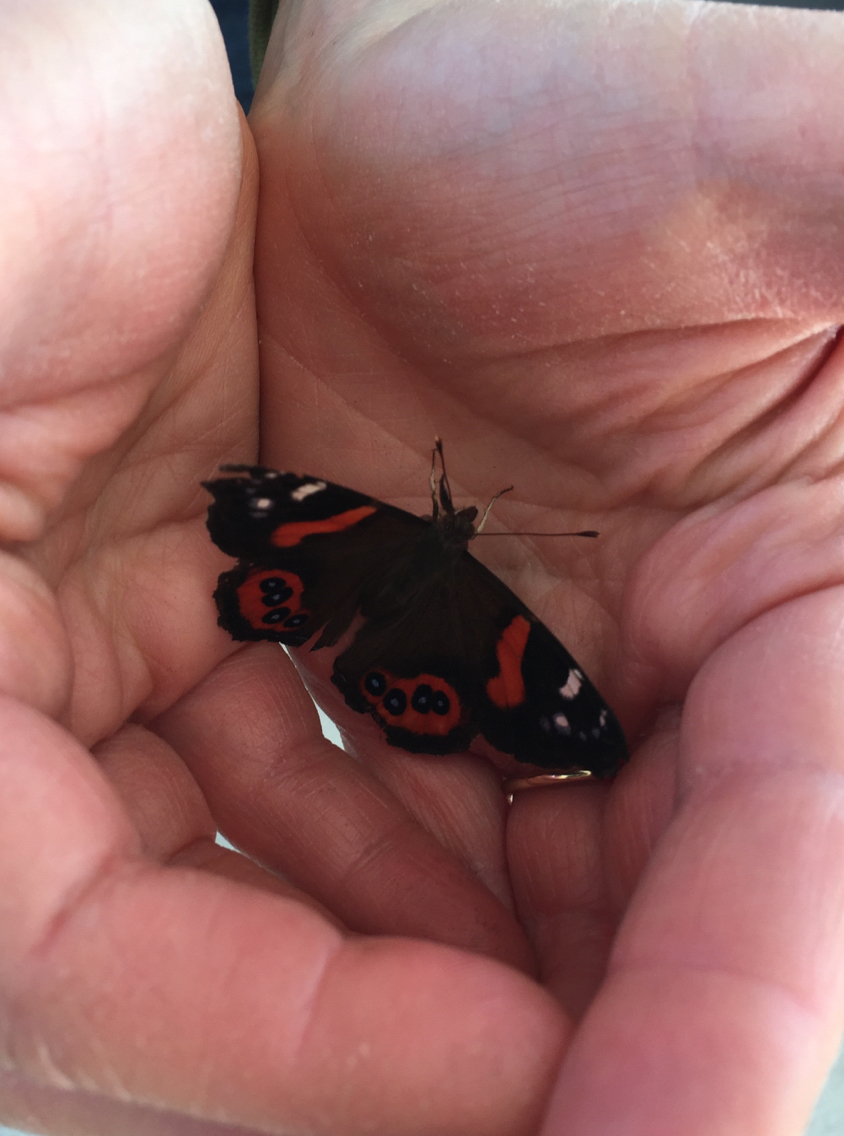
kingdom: Animalia
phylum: Arthropoda
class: Insecta
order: Lepidoptera
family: Nymphalidae
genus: Vanessa
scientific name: Vanessa gonerilla
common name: New zealand red admiral
